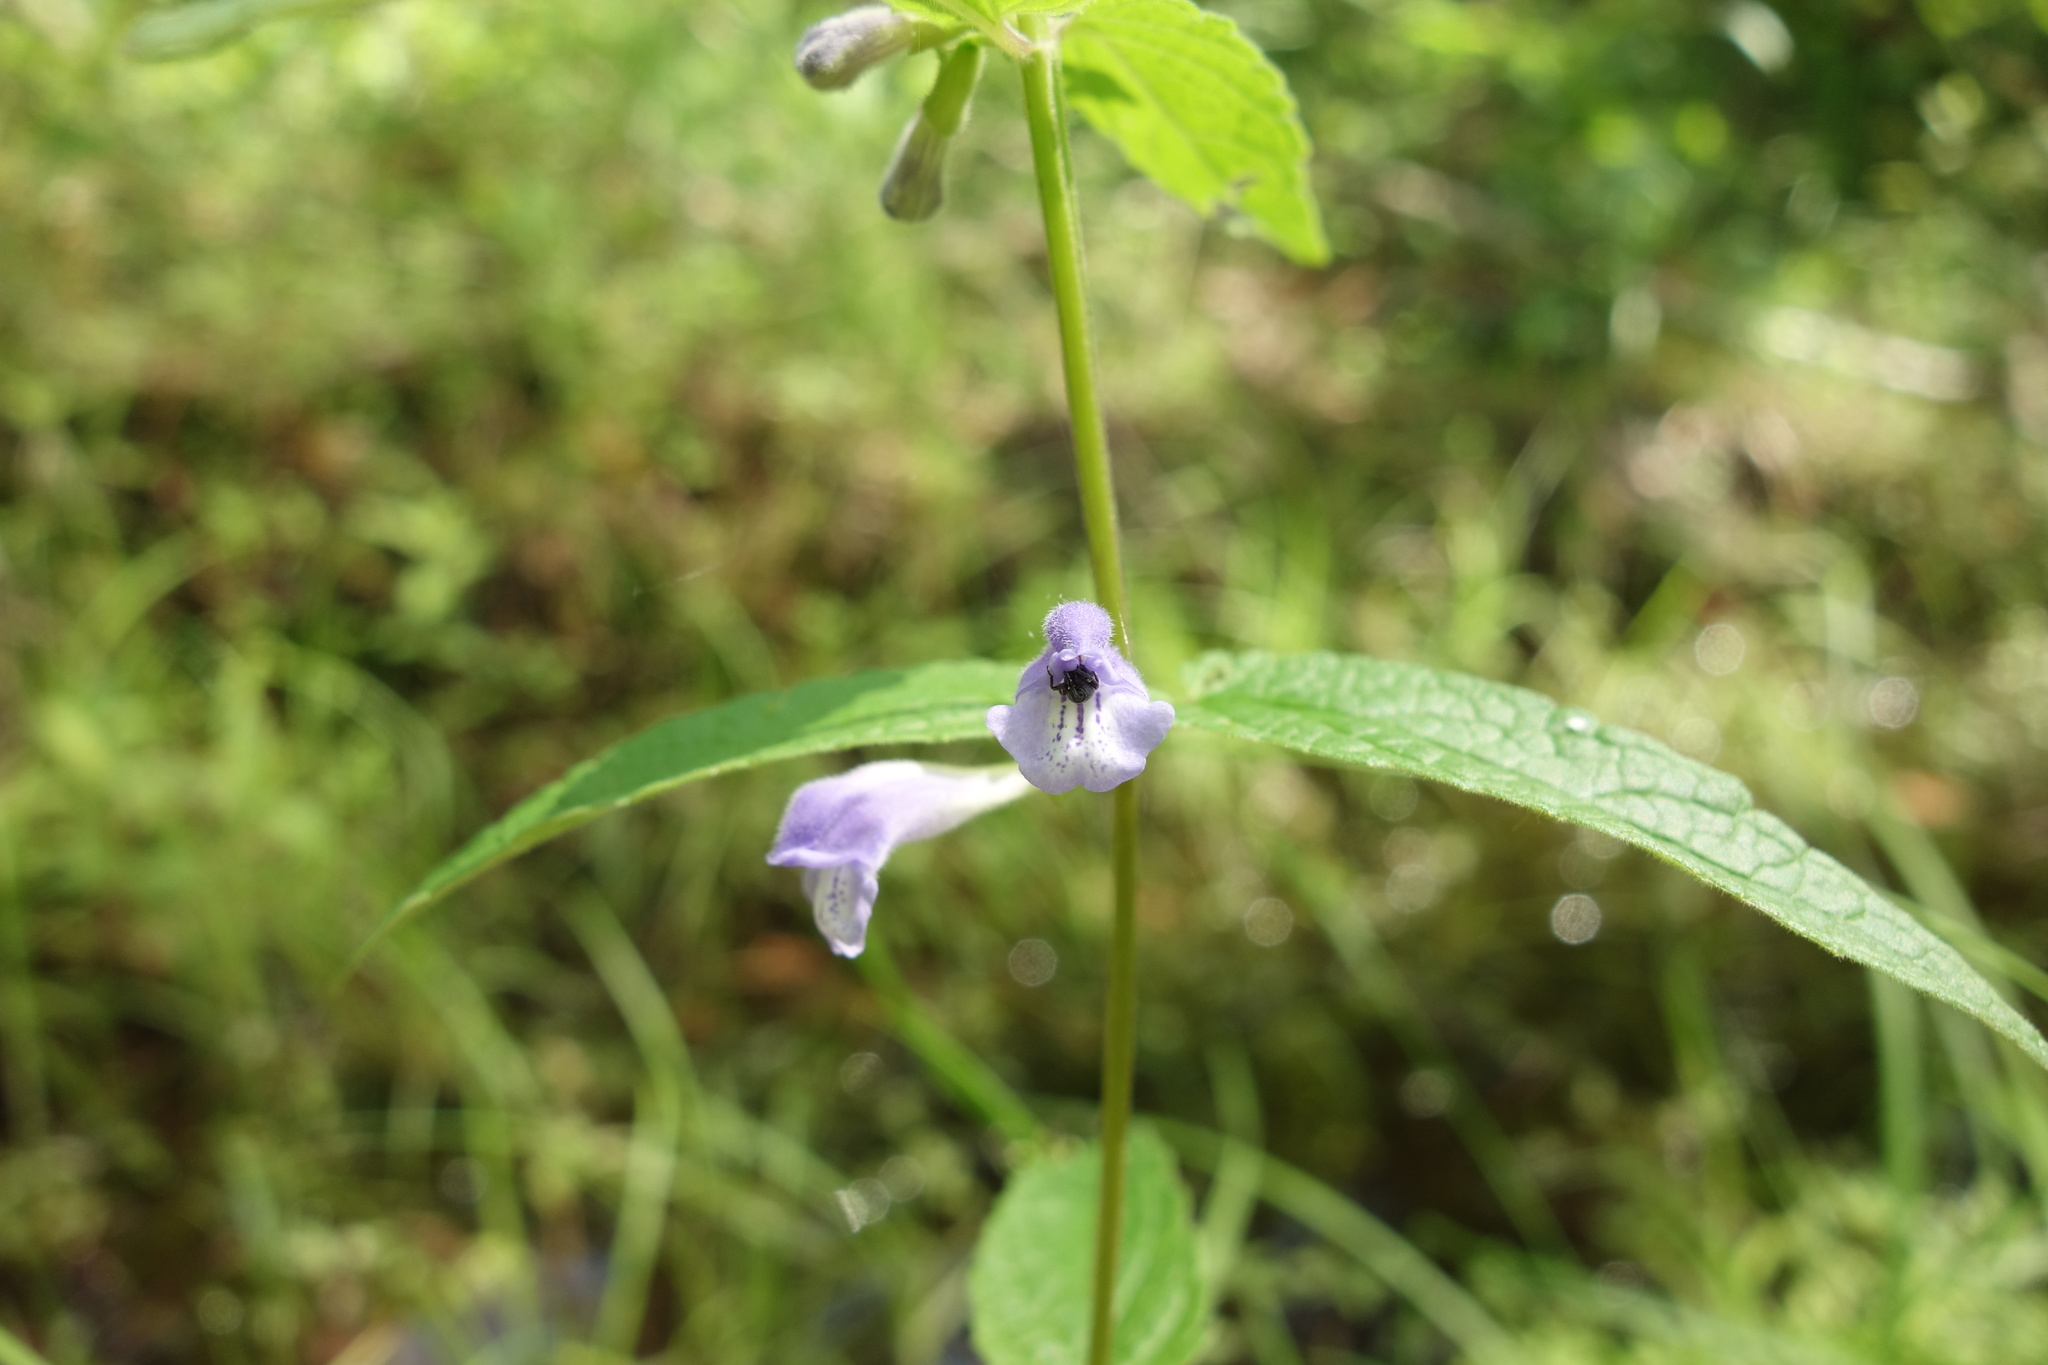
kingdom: Plantae
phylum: Tracheophyta
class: Magnoliopsida
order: Lamiales
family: Lamiaceae
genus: Scutellaria
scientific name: Scutellaria galericulata
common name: Skullcap
